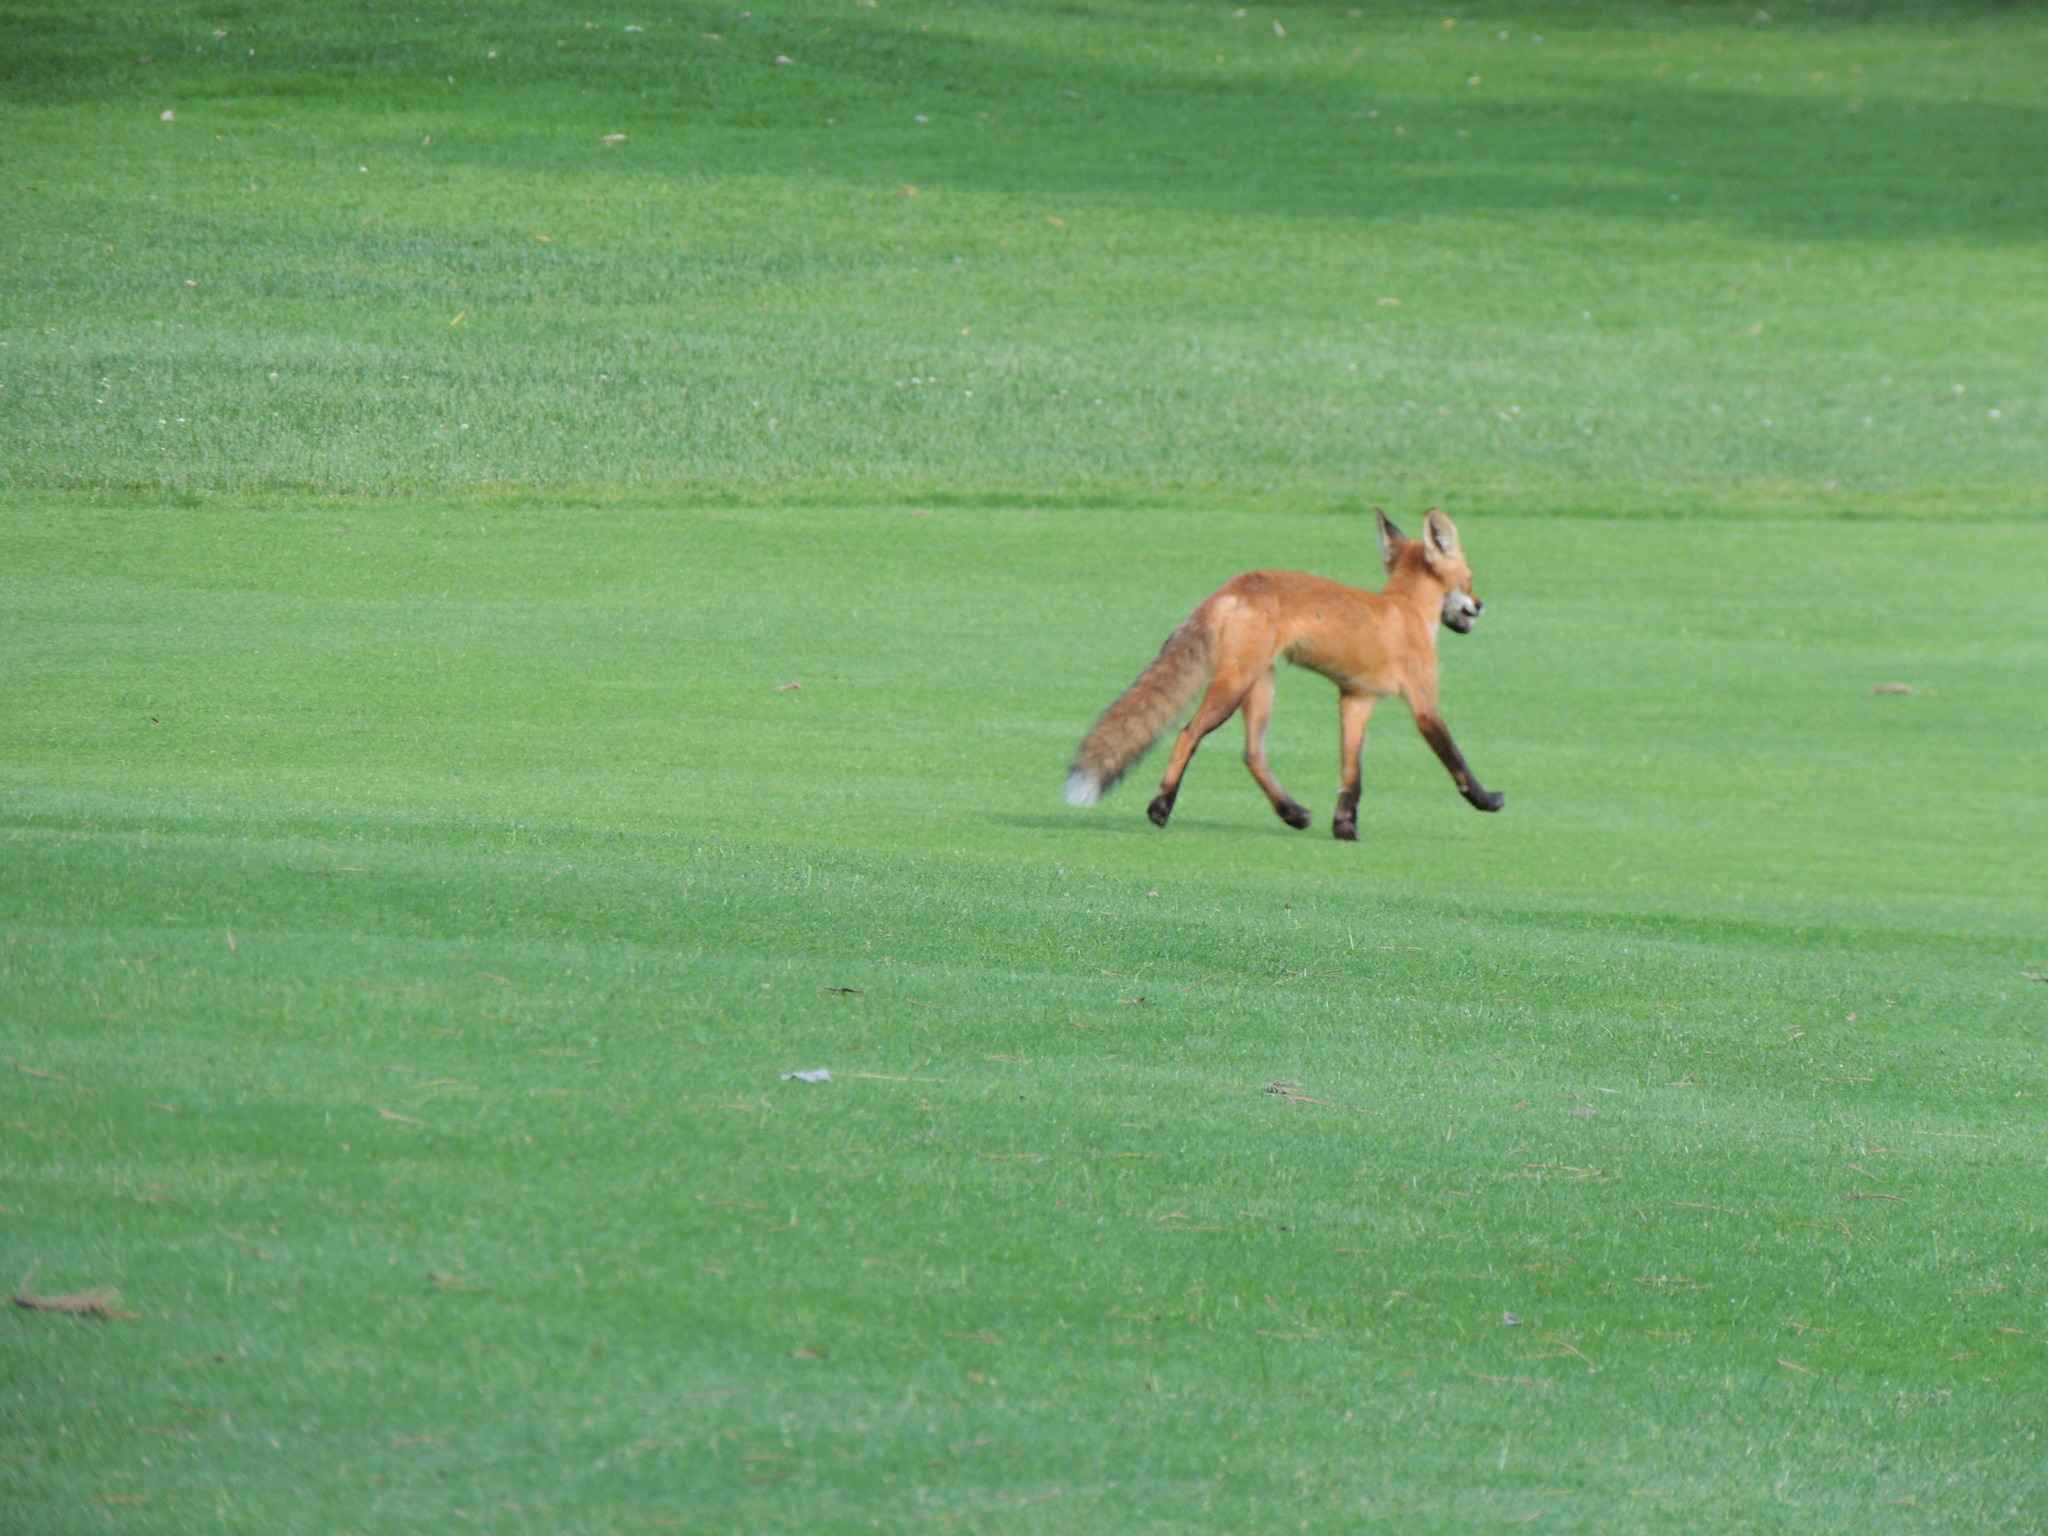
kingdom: Animalia
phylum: Chordata
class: Mammalia
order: Carnivora
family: Canidae
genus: Vulpes
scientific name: Vulpes vulpes
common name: Red fox
